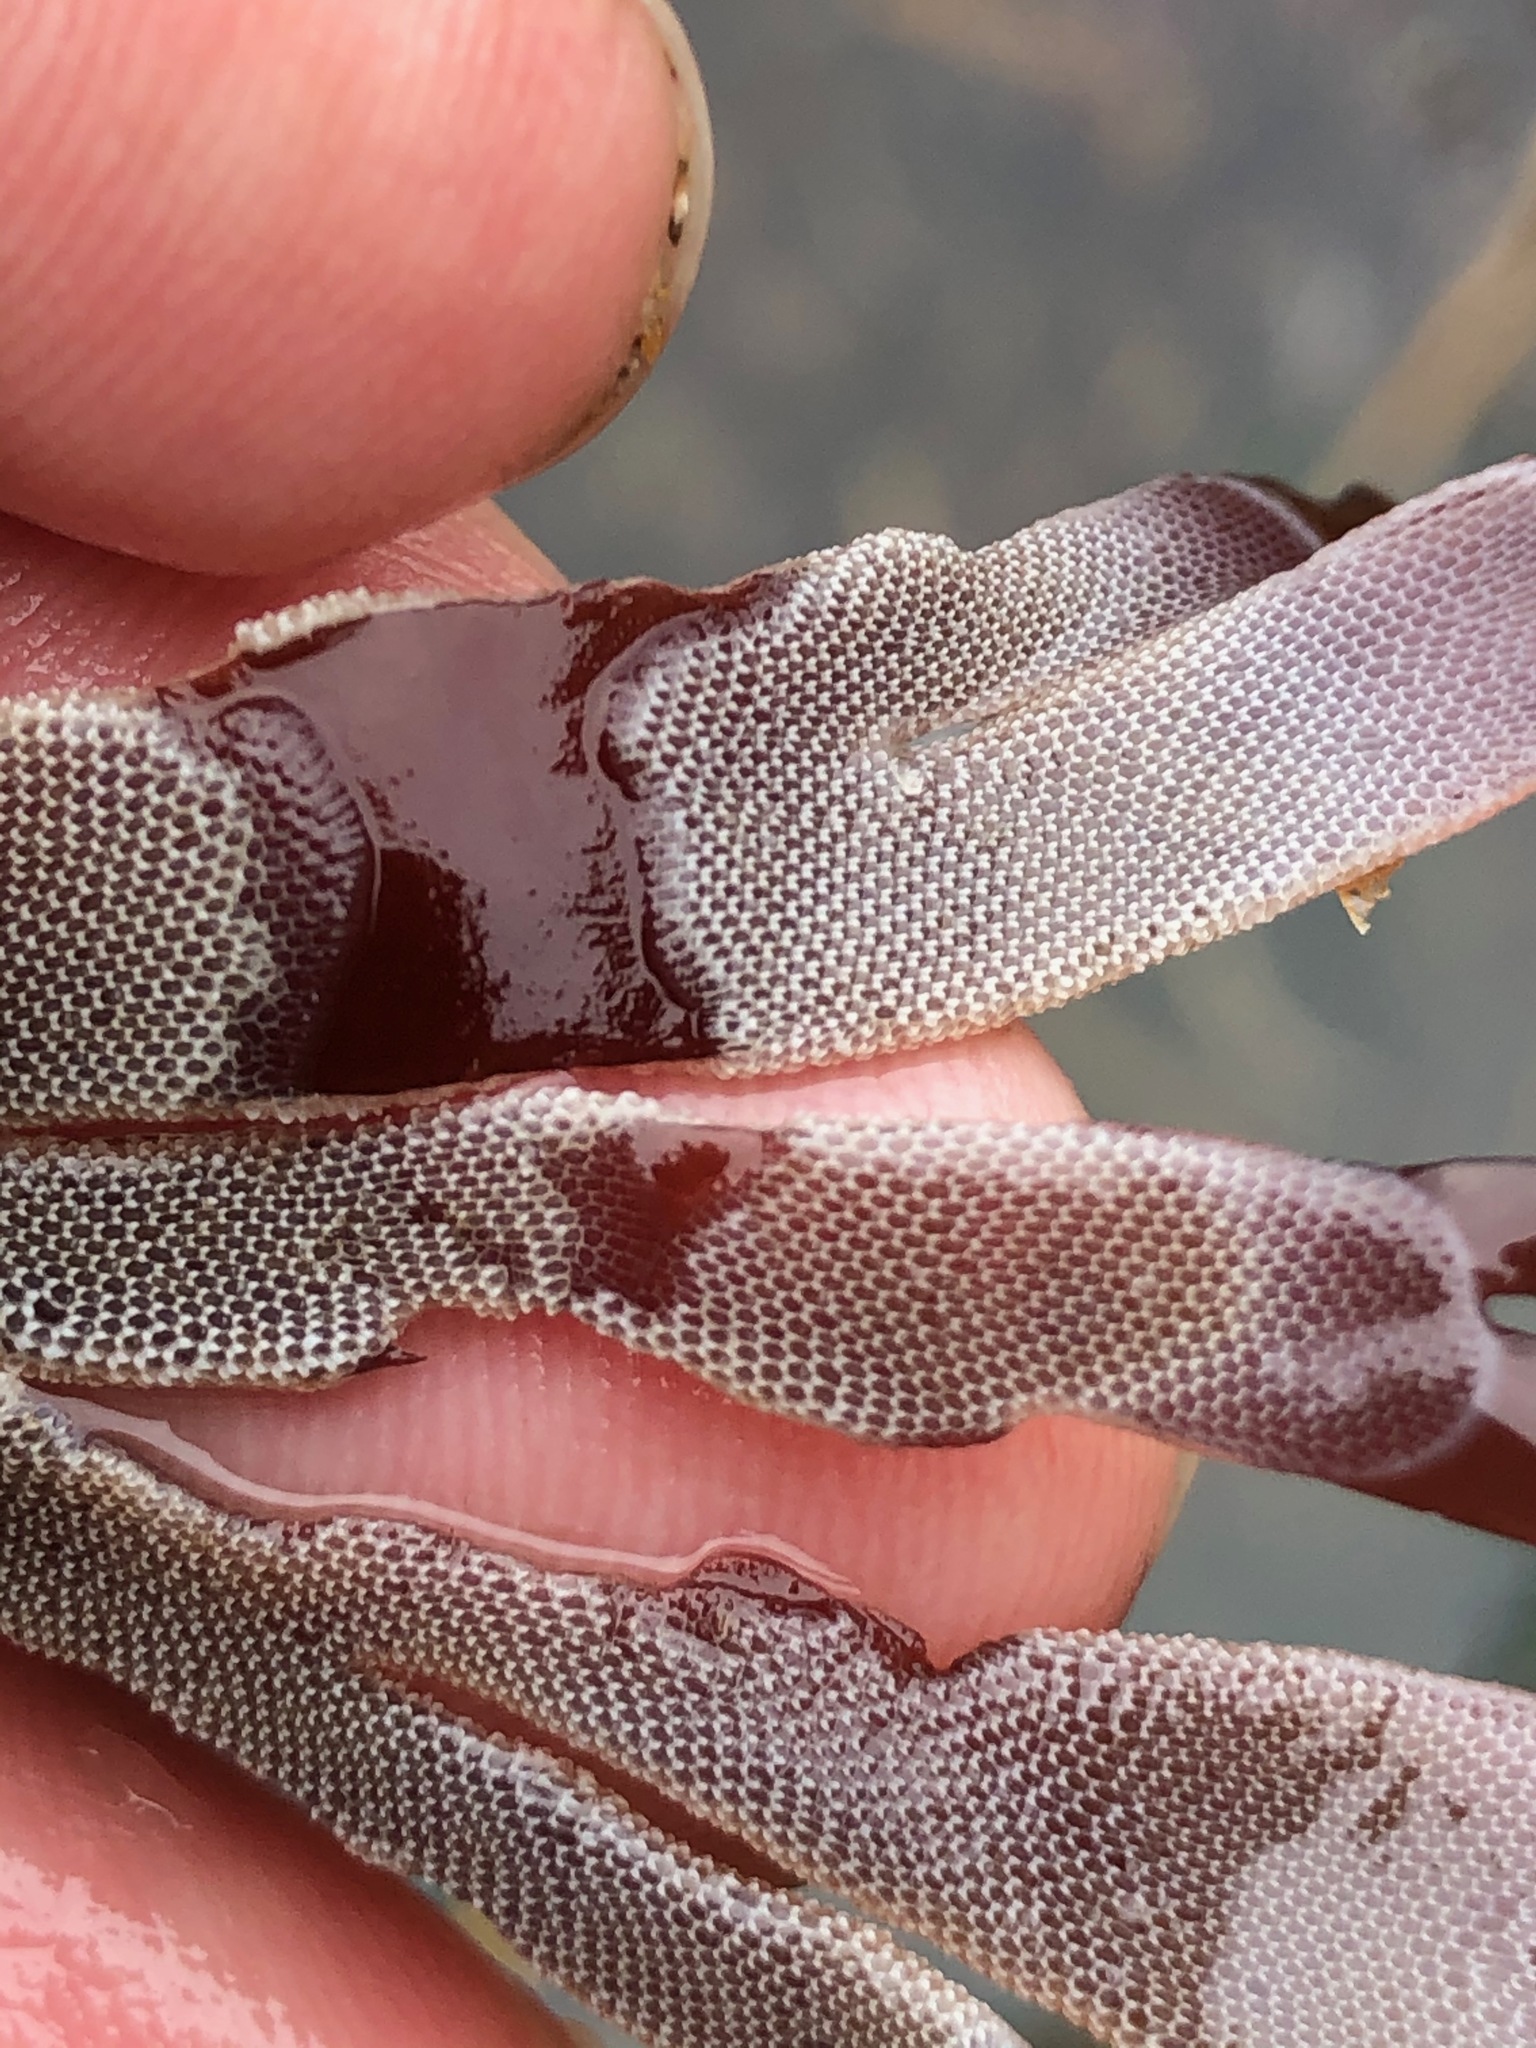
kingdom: Animalia
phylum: Bryozoa
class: Gymnolaemata
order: Cheilostomatida
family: Membraniporidae
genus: Jellyella
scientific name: Jellyella tuberculata
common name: Sargassum bryozoan
